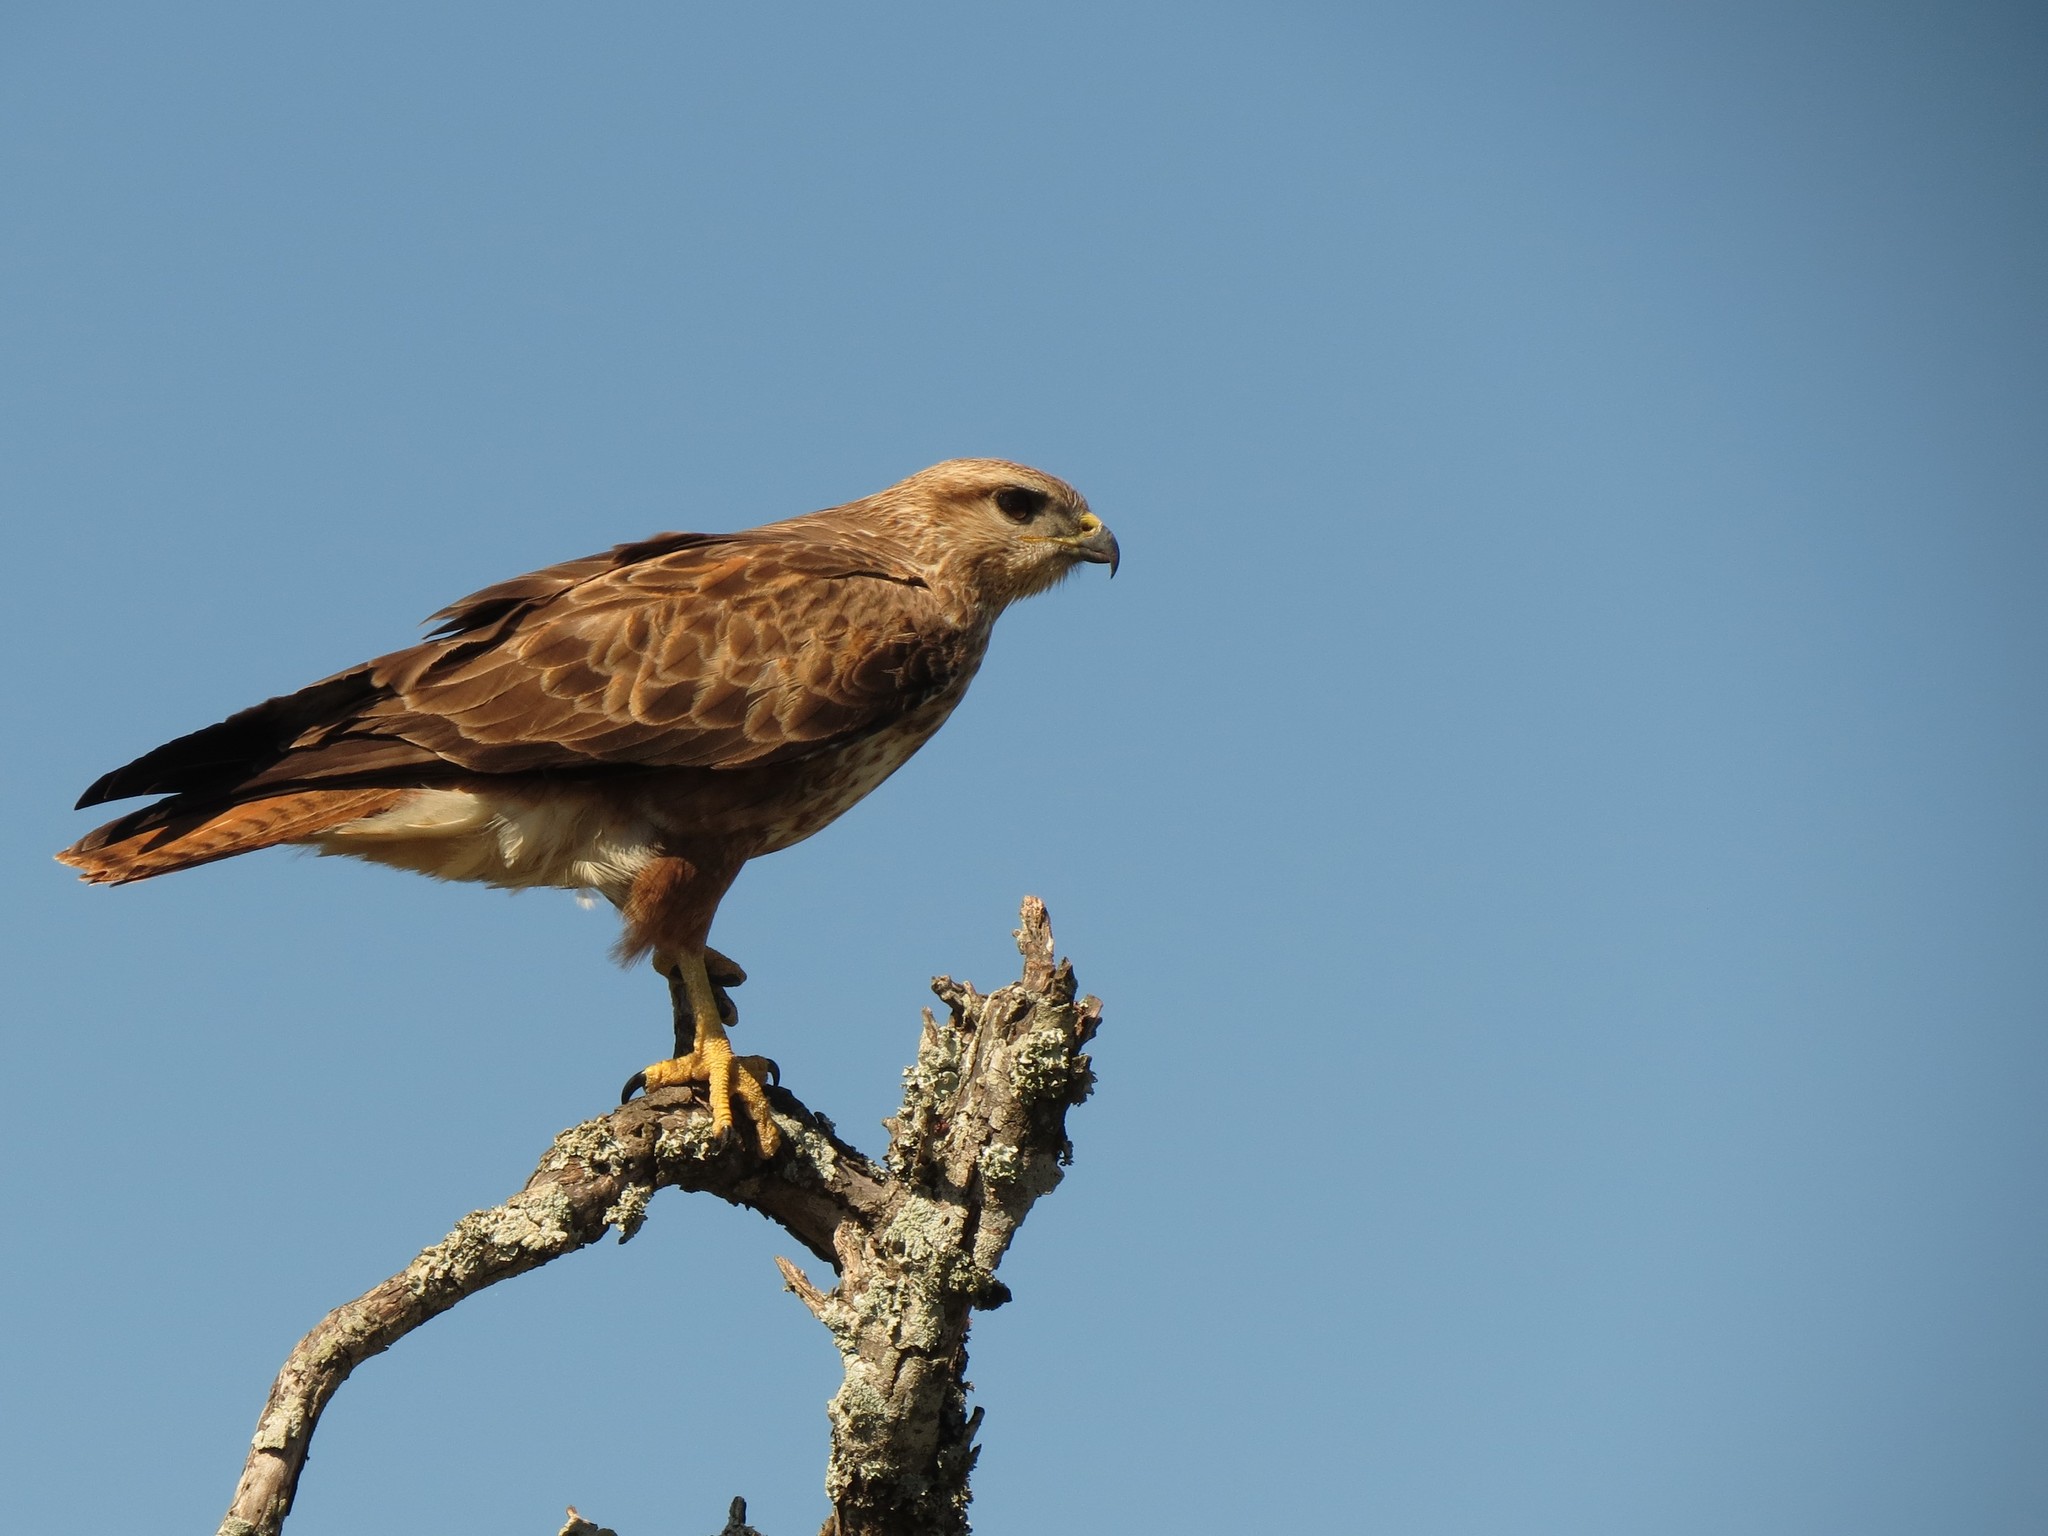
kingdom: Animalia
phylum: Chordata
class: Aves
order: Accipitriformes
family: Accipitridae
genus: Buteo
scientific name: Buteo buteo
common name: Common buzzard
